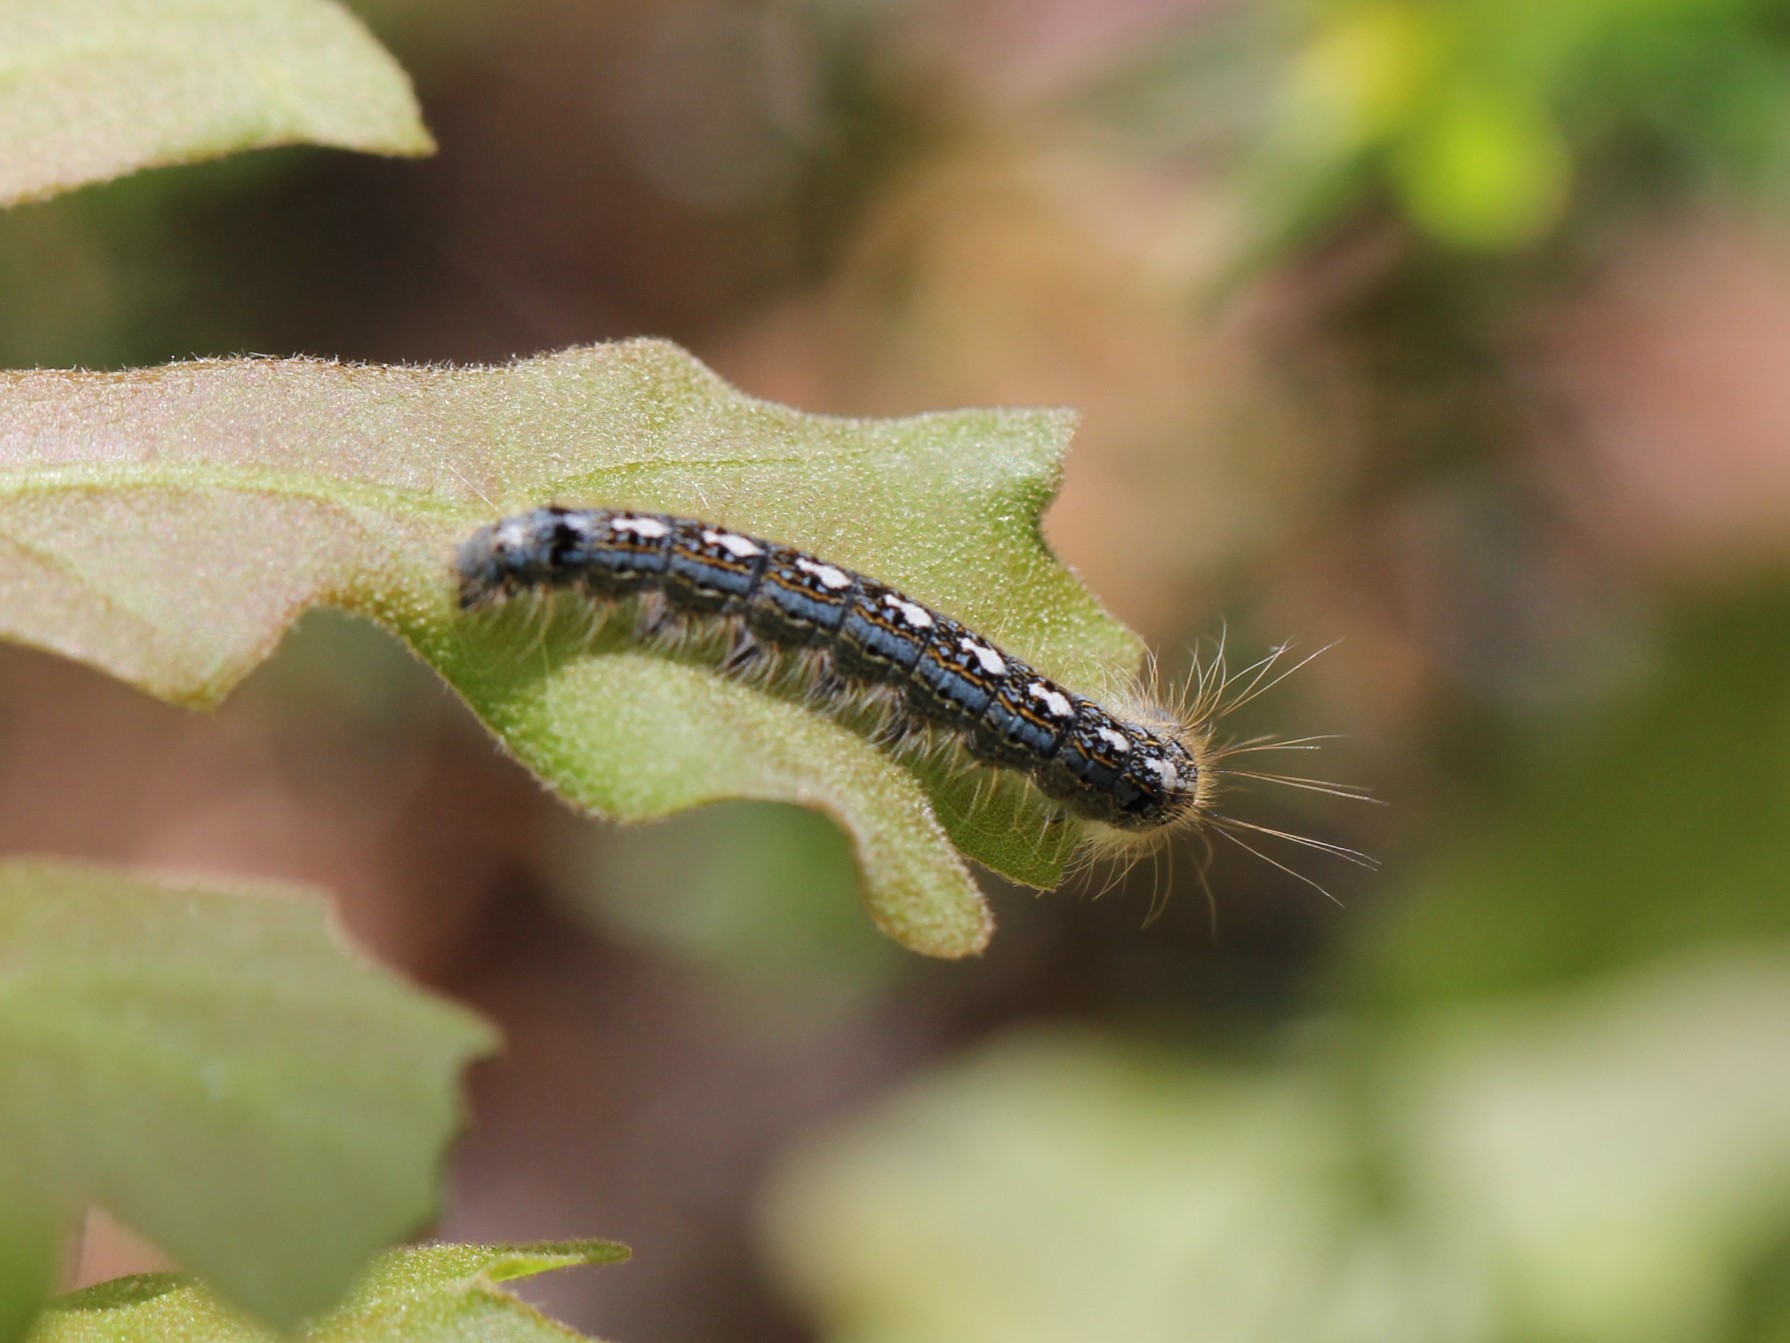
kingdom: Animalia
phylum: Arthropoda
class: Insecta
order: Lepidoptera
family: Lasiocampidae
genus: Malacosoma
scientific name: Malacosoma disstria
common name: Forest tent caterpillar
